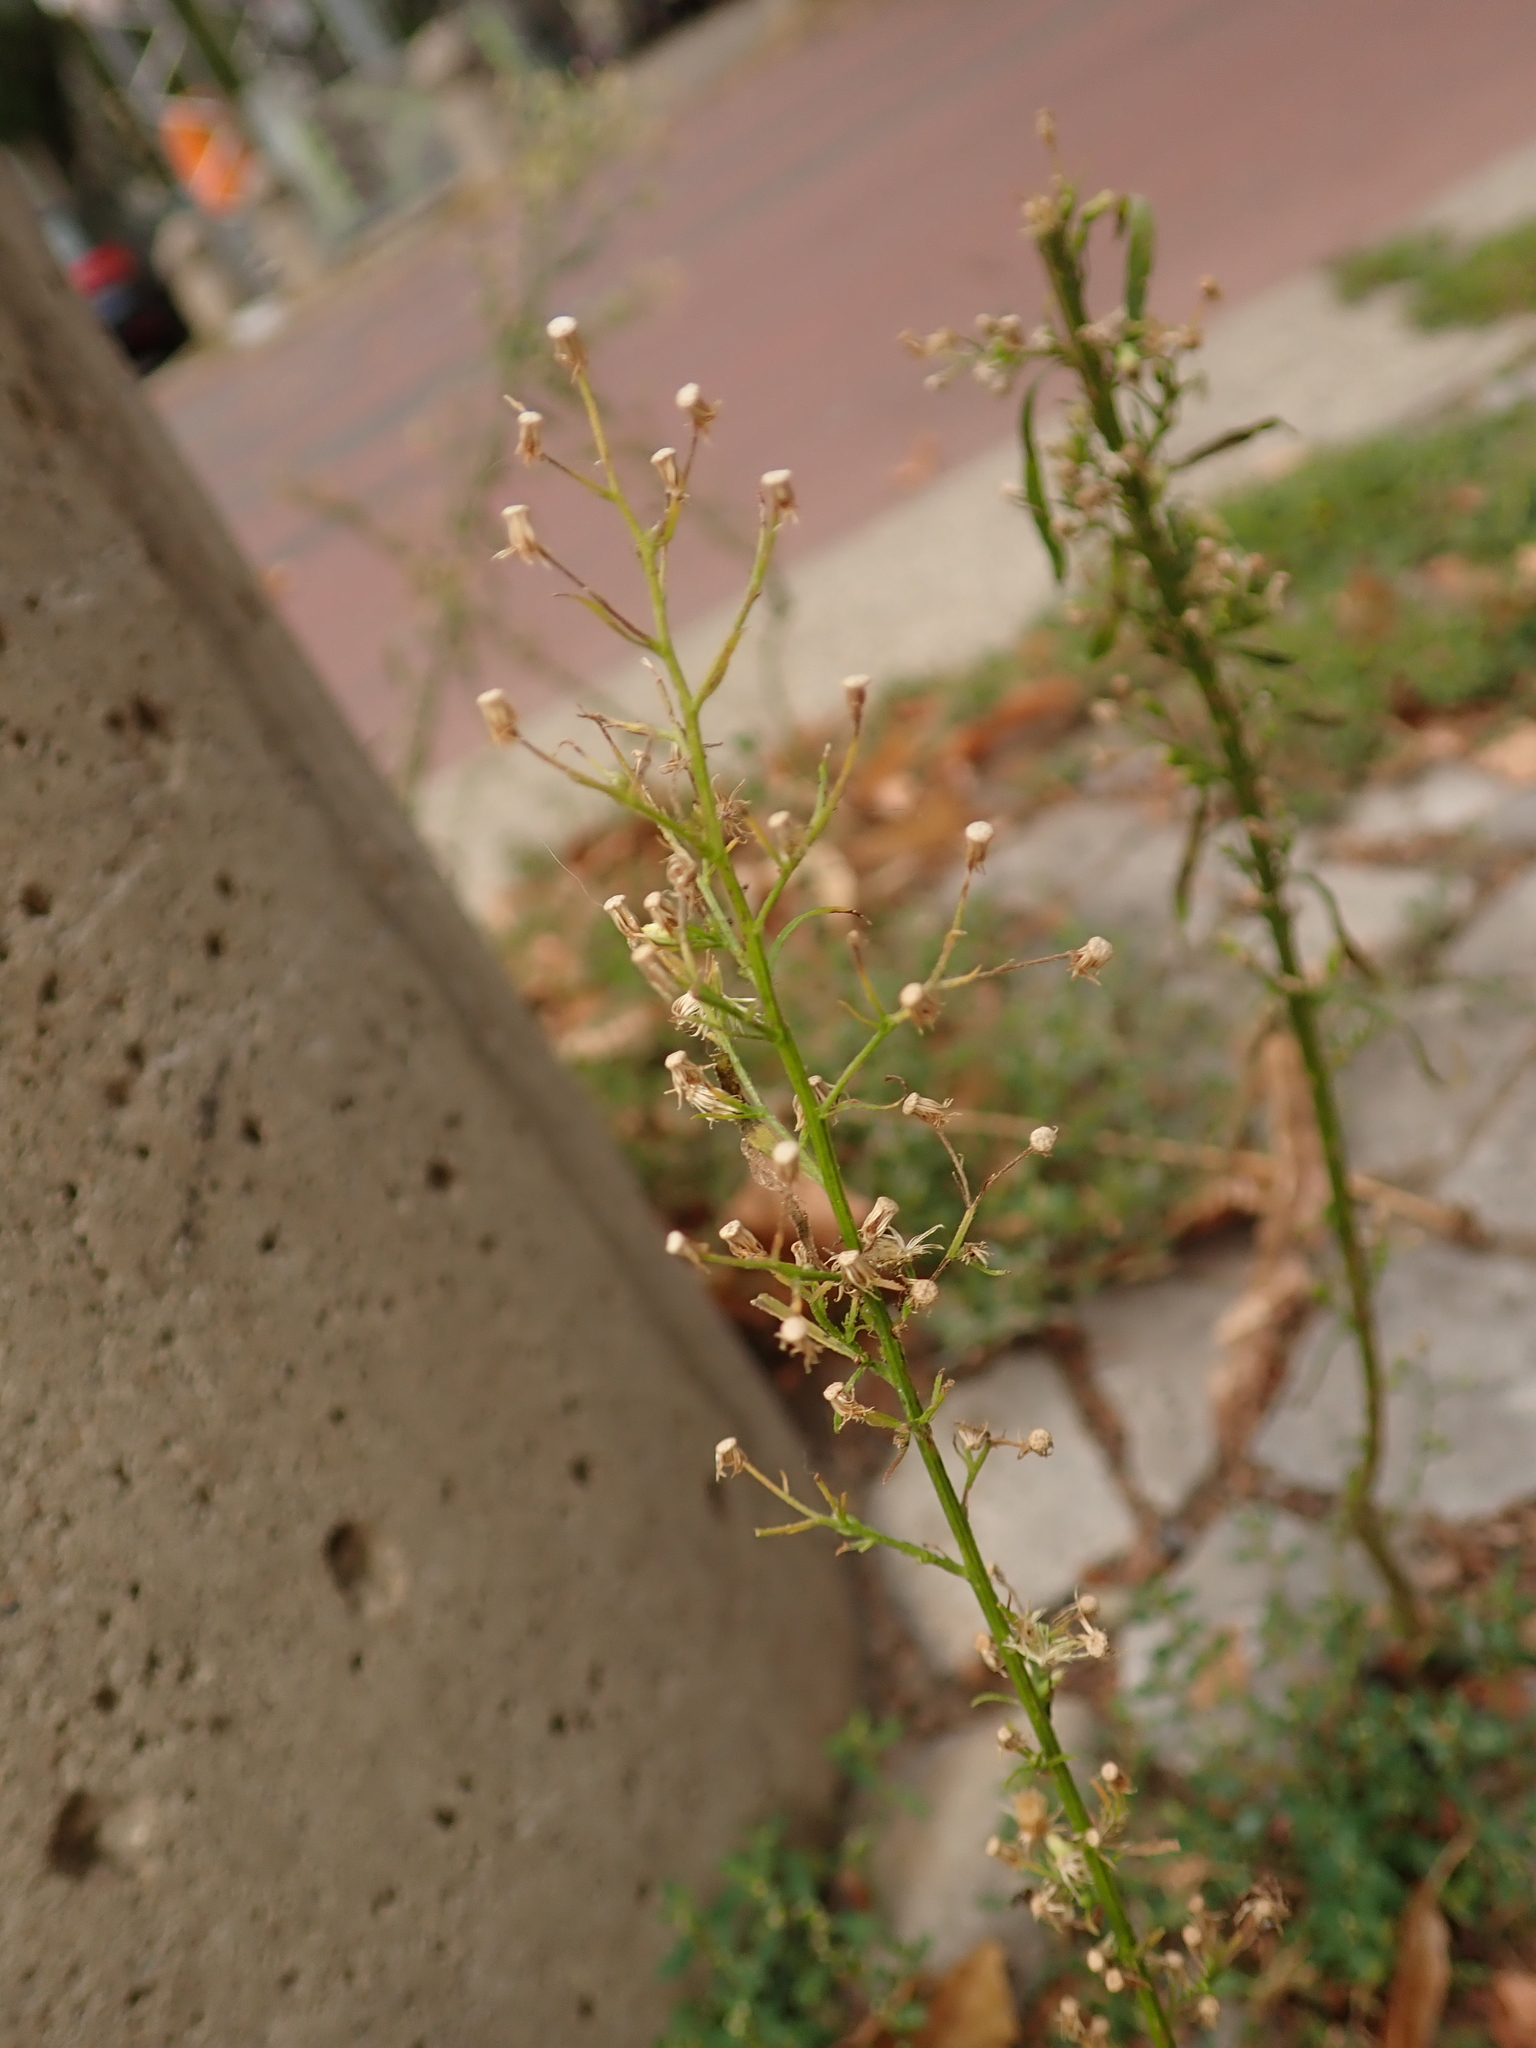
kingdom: Plantae
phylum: Tracheophyta
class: Magnoliopsida
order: Asterales
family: Asteraceae
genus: Erigeron
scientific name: Erigeron canadensis
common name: Canadian fleabane
